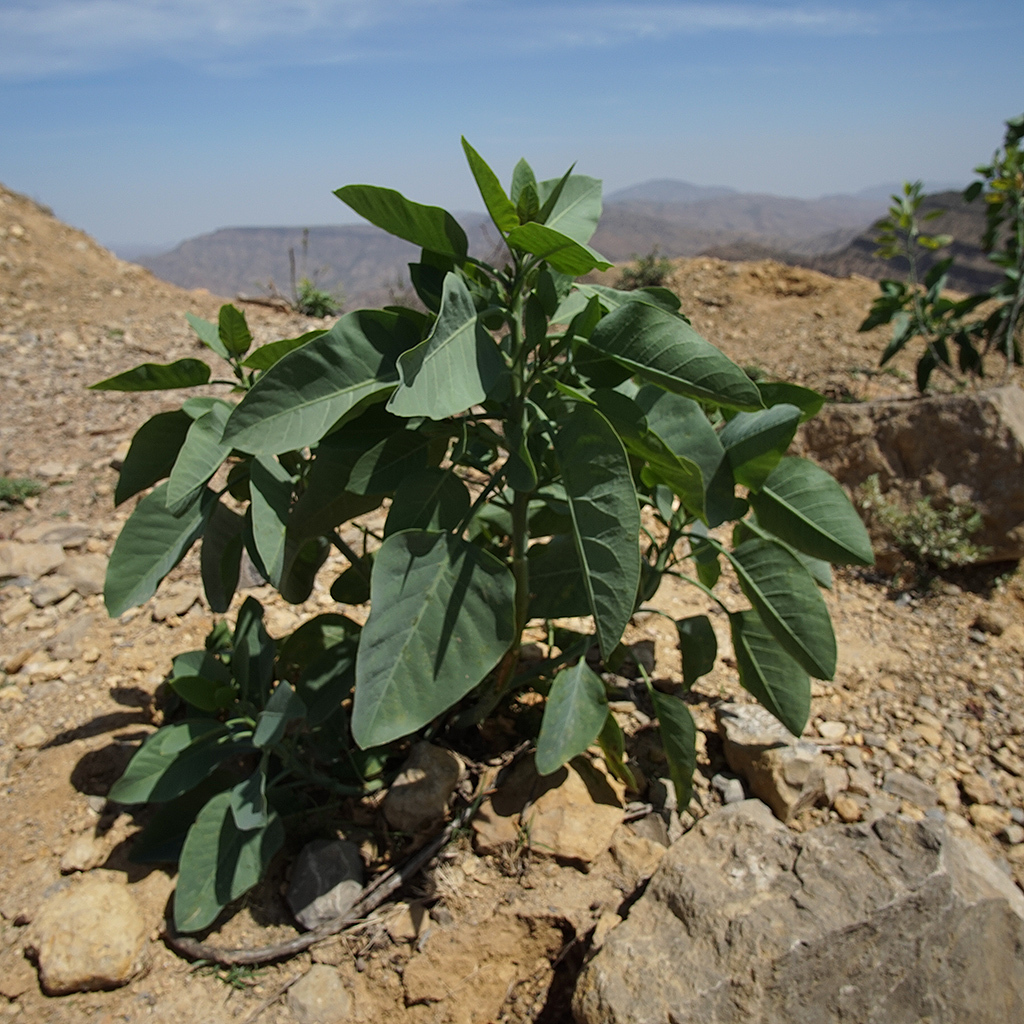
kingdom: Plantae
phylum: Tracheophyta
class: Magnoliopsida
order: Solanales
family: Solanaceae
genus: Nicotiana
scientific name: Nicotiana glauca
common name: Tree tobacco
